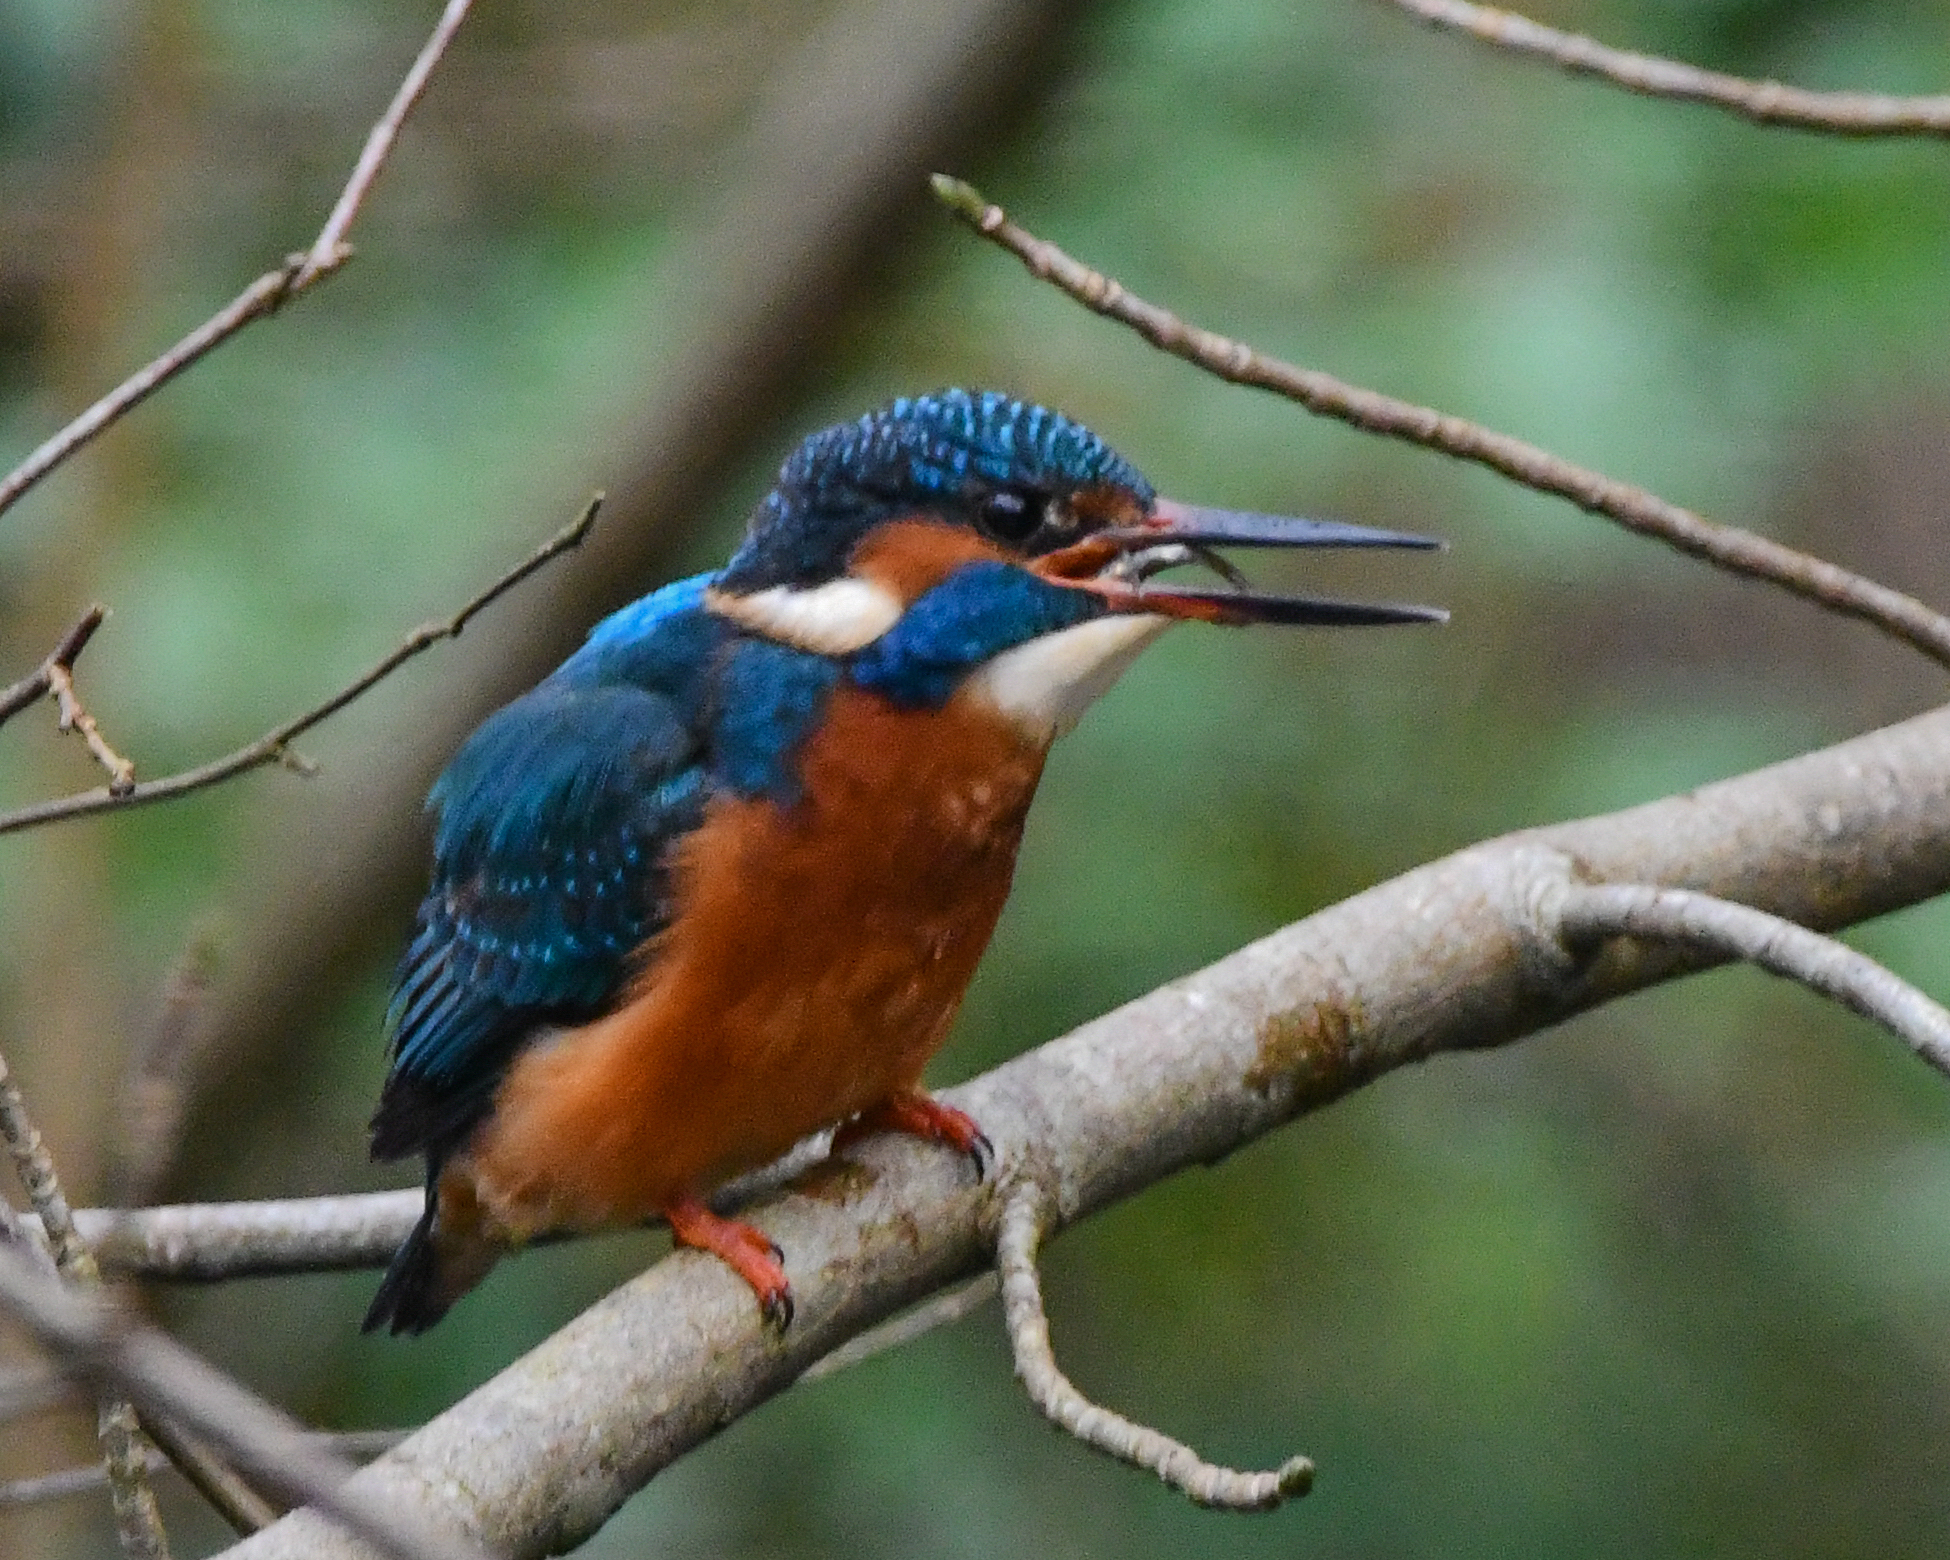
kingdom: Animalia
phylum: Chordata
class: Aves
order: Coraciiformes
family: Alcedinidae
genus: Alcedo
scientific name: Alcedo atthis
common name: Common kingfisher
